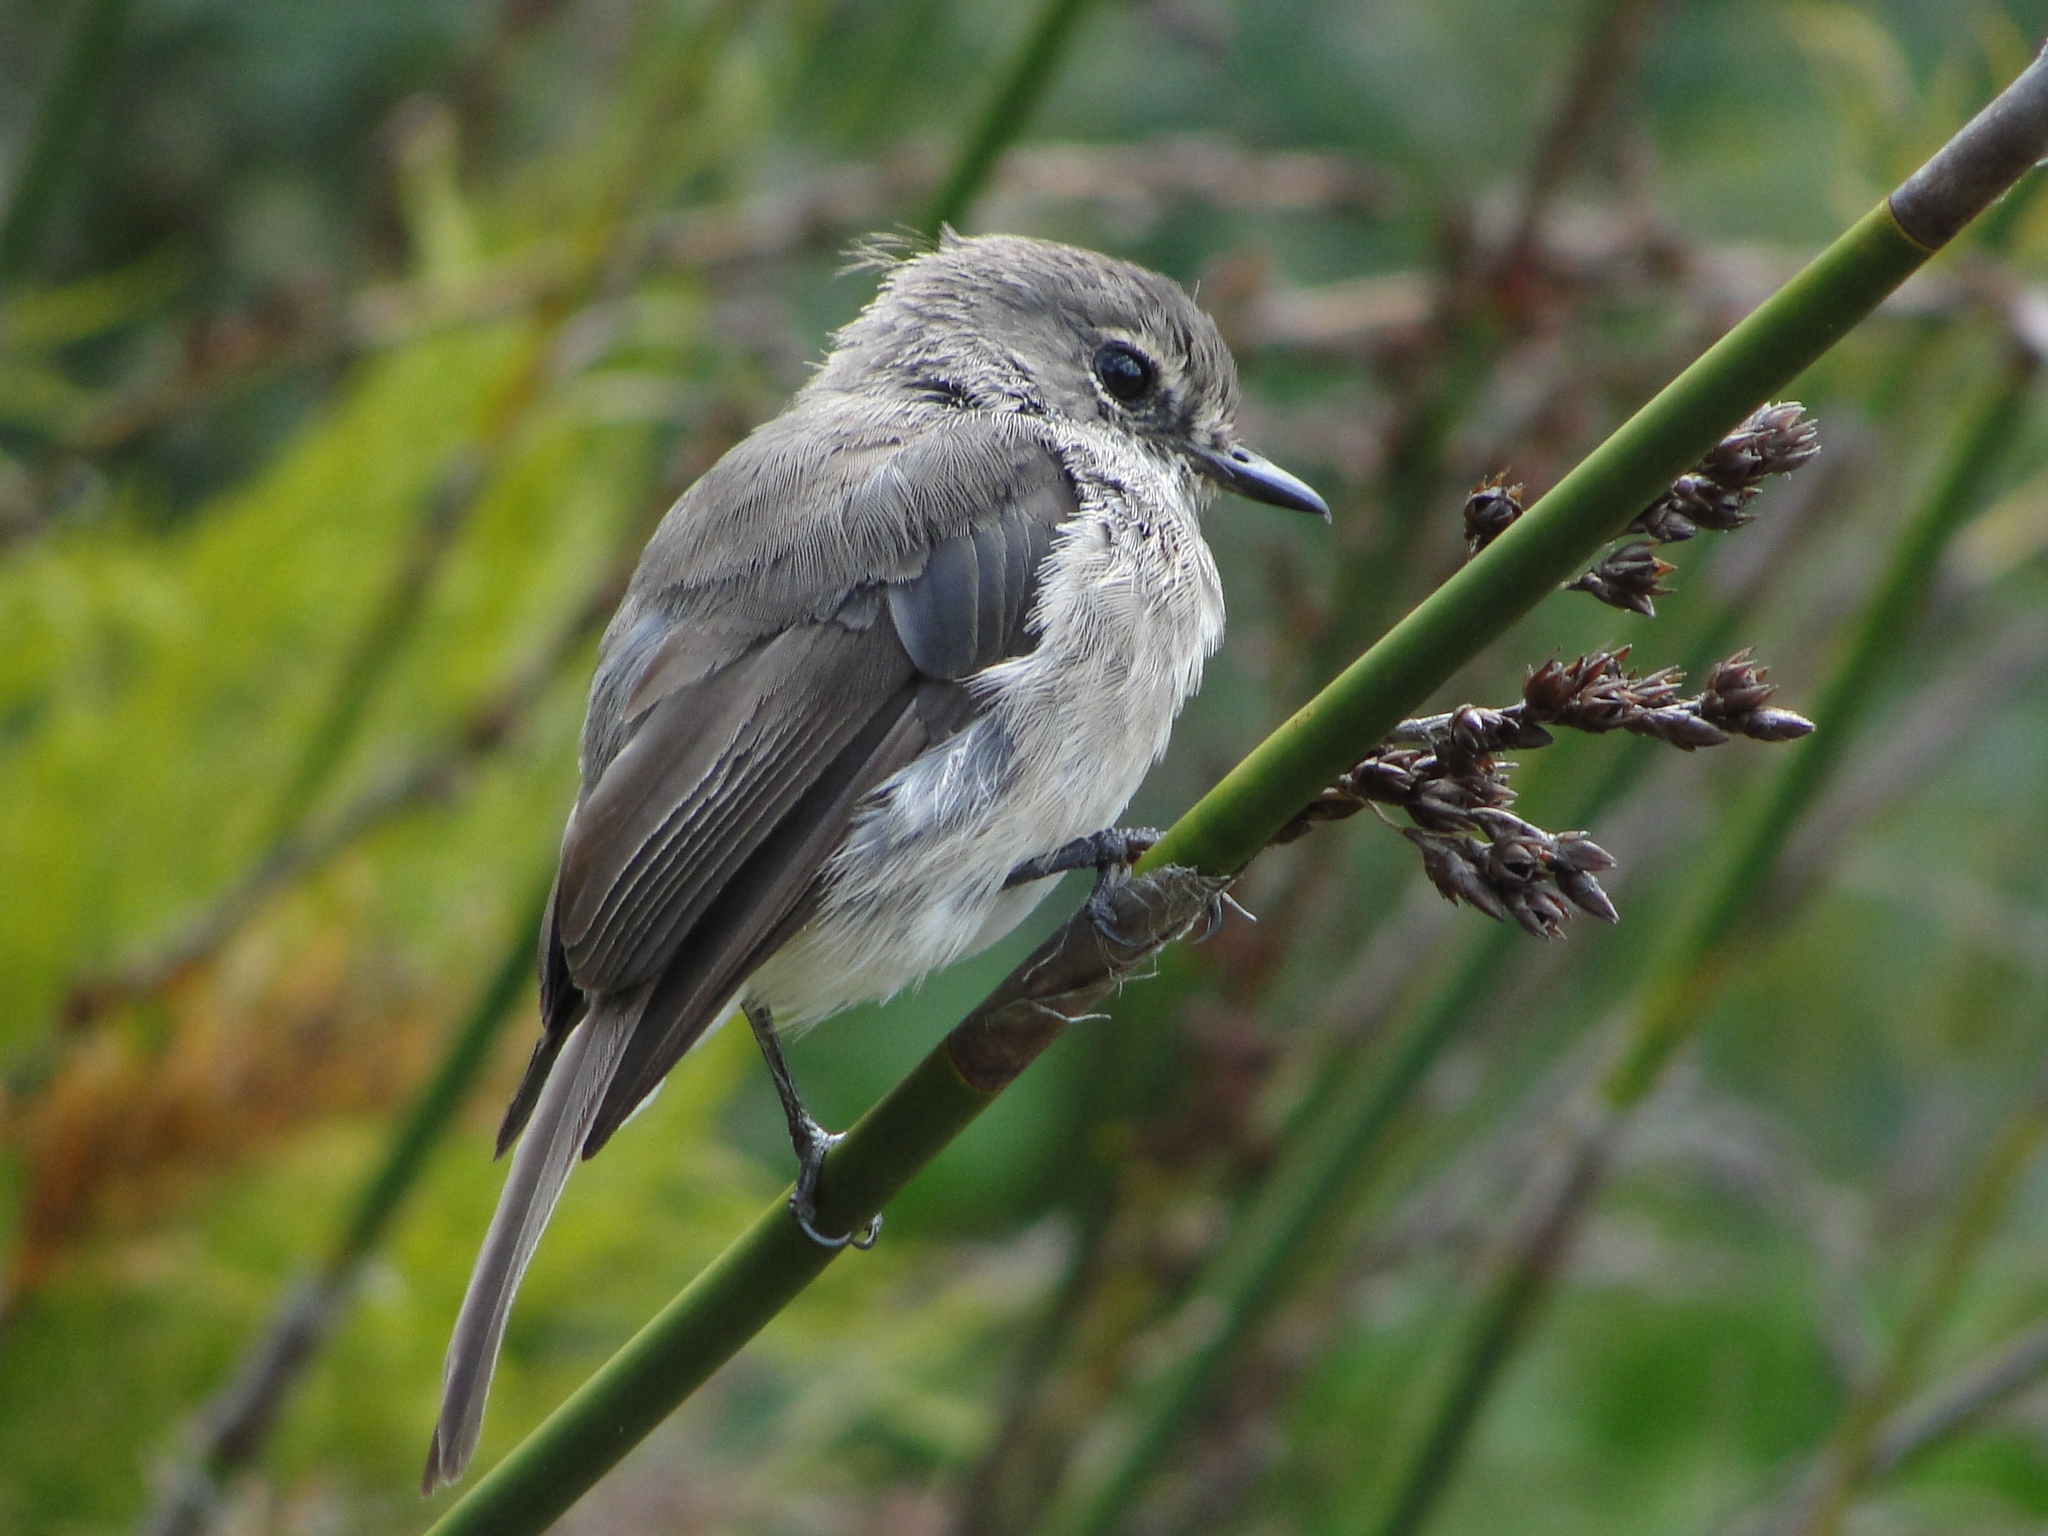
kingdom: Animalia
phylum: Chordata
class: Aves
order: Passeriformes
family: Muscicapidae
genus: Muscicapa
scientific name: Muscicapa adusta
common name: African dusky flycatcher
